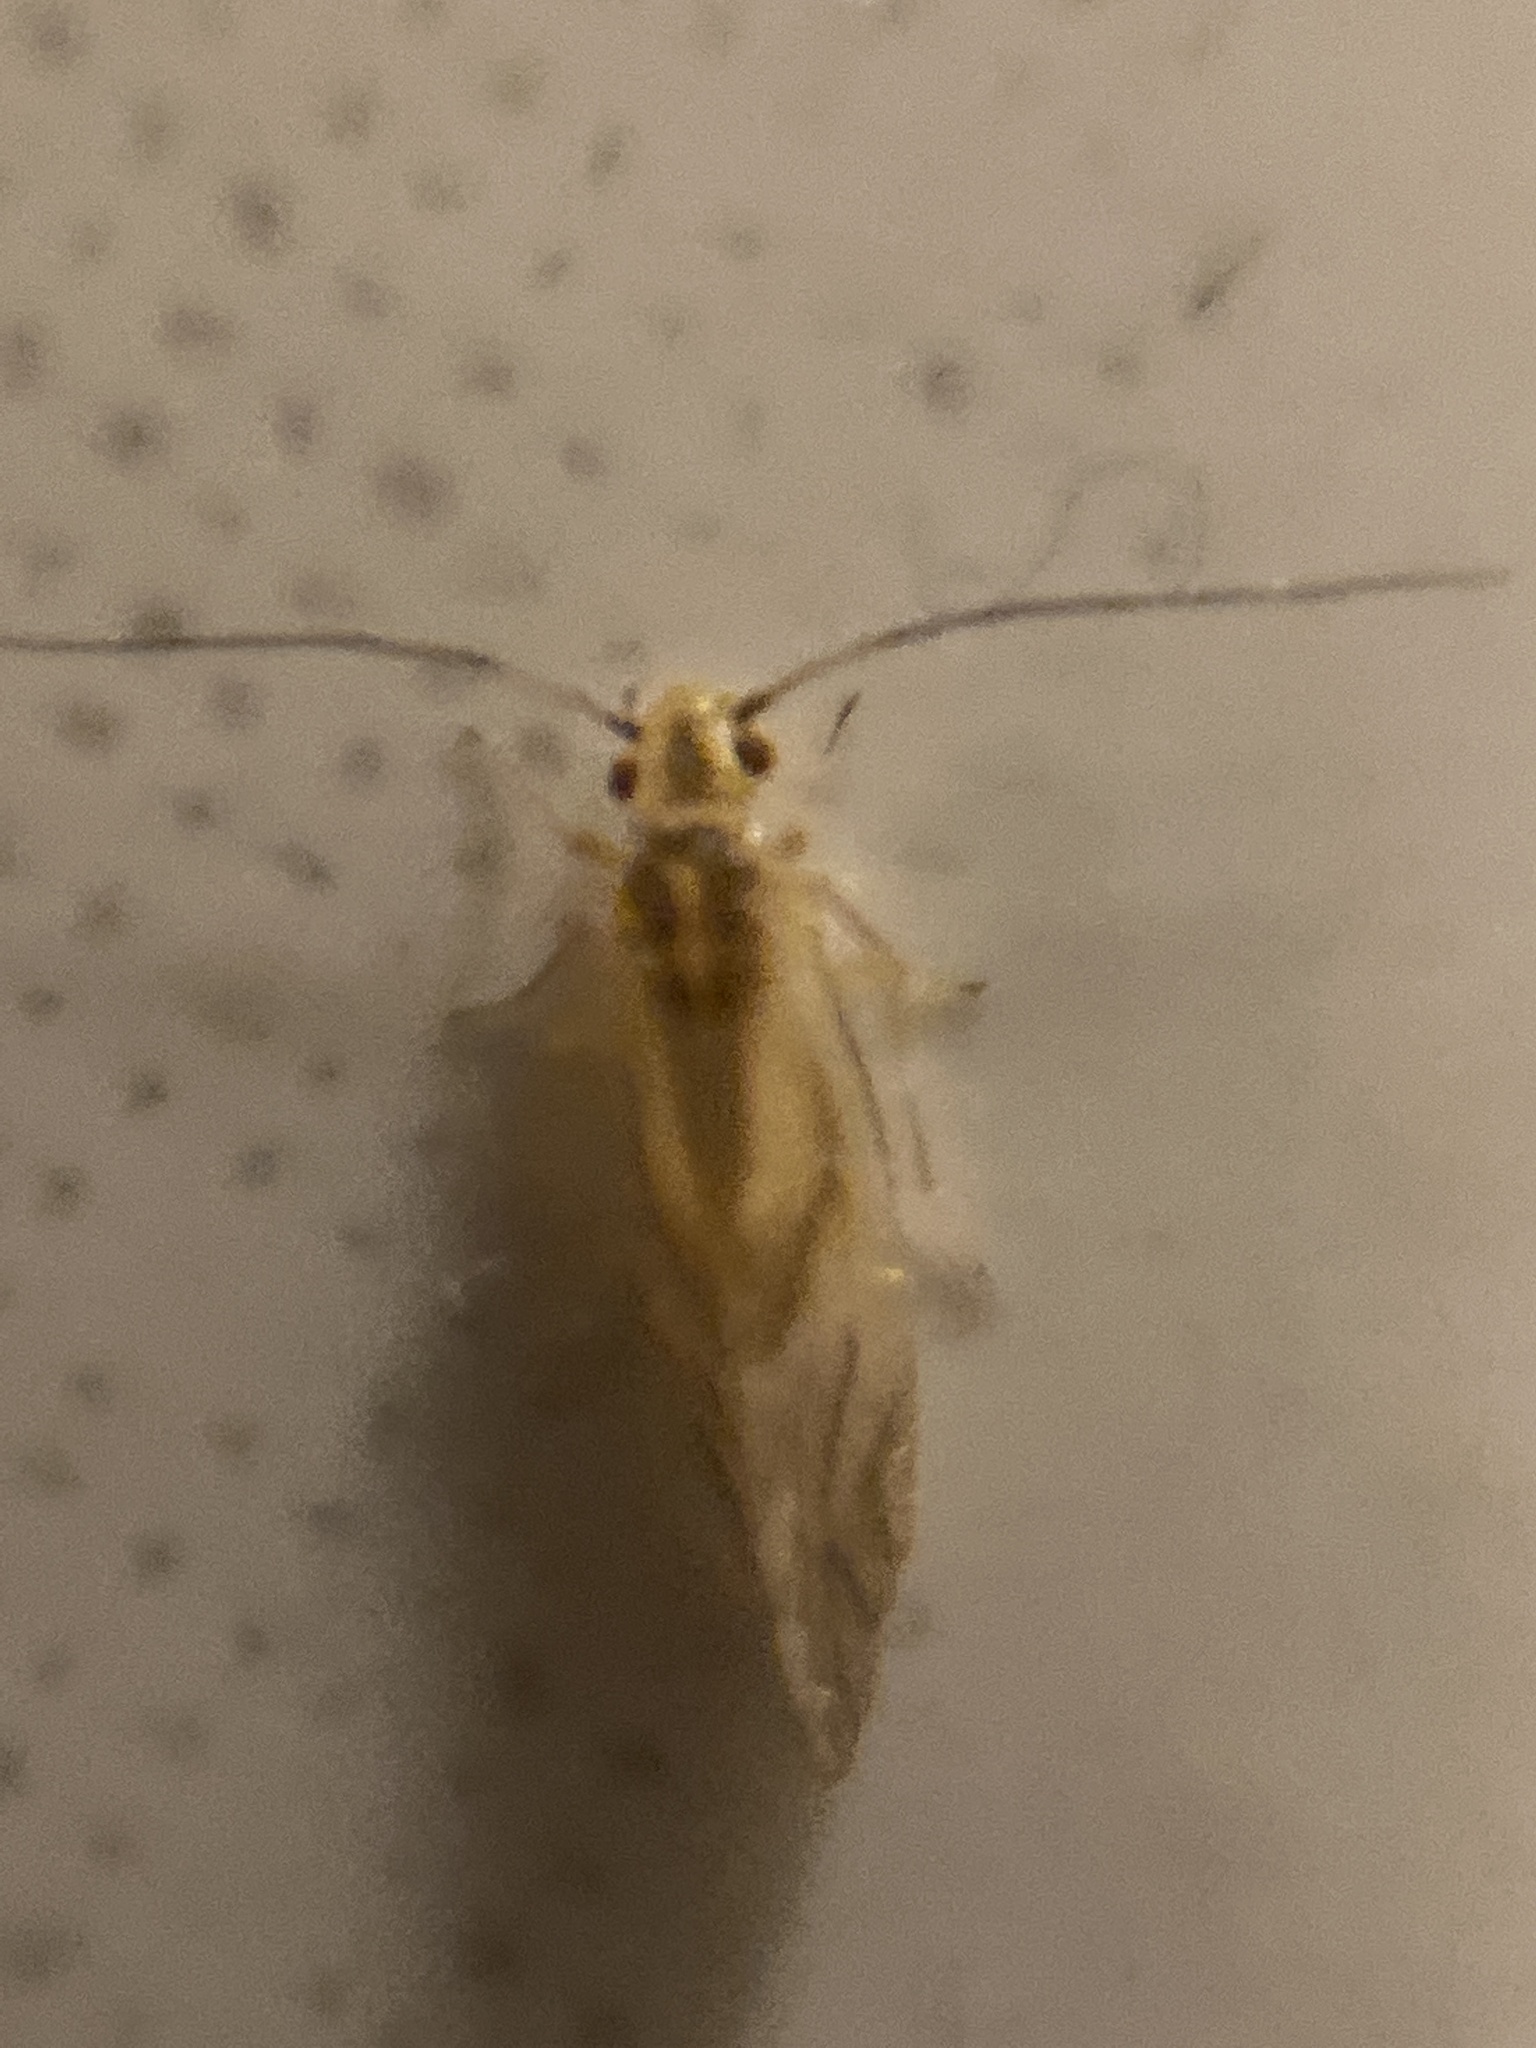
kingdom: Animalia
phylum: Arthropoda
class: Insecta
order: Psocodea
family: Caeciliusidae
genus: Valenzuela
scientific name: Valenzuela flavidus
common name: Yellow barklouse
